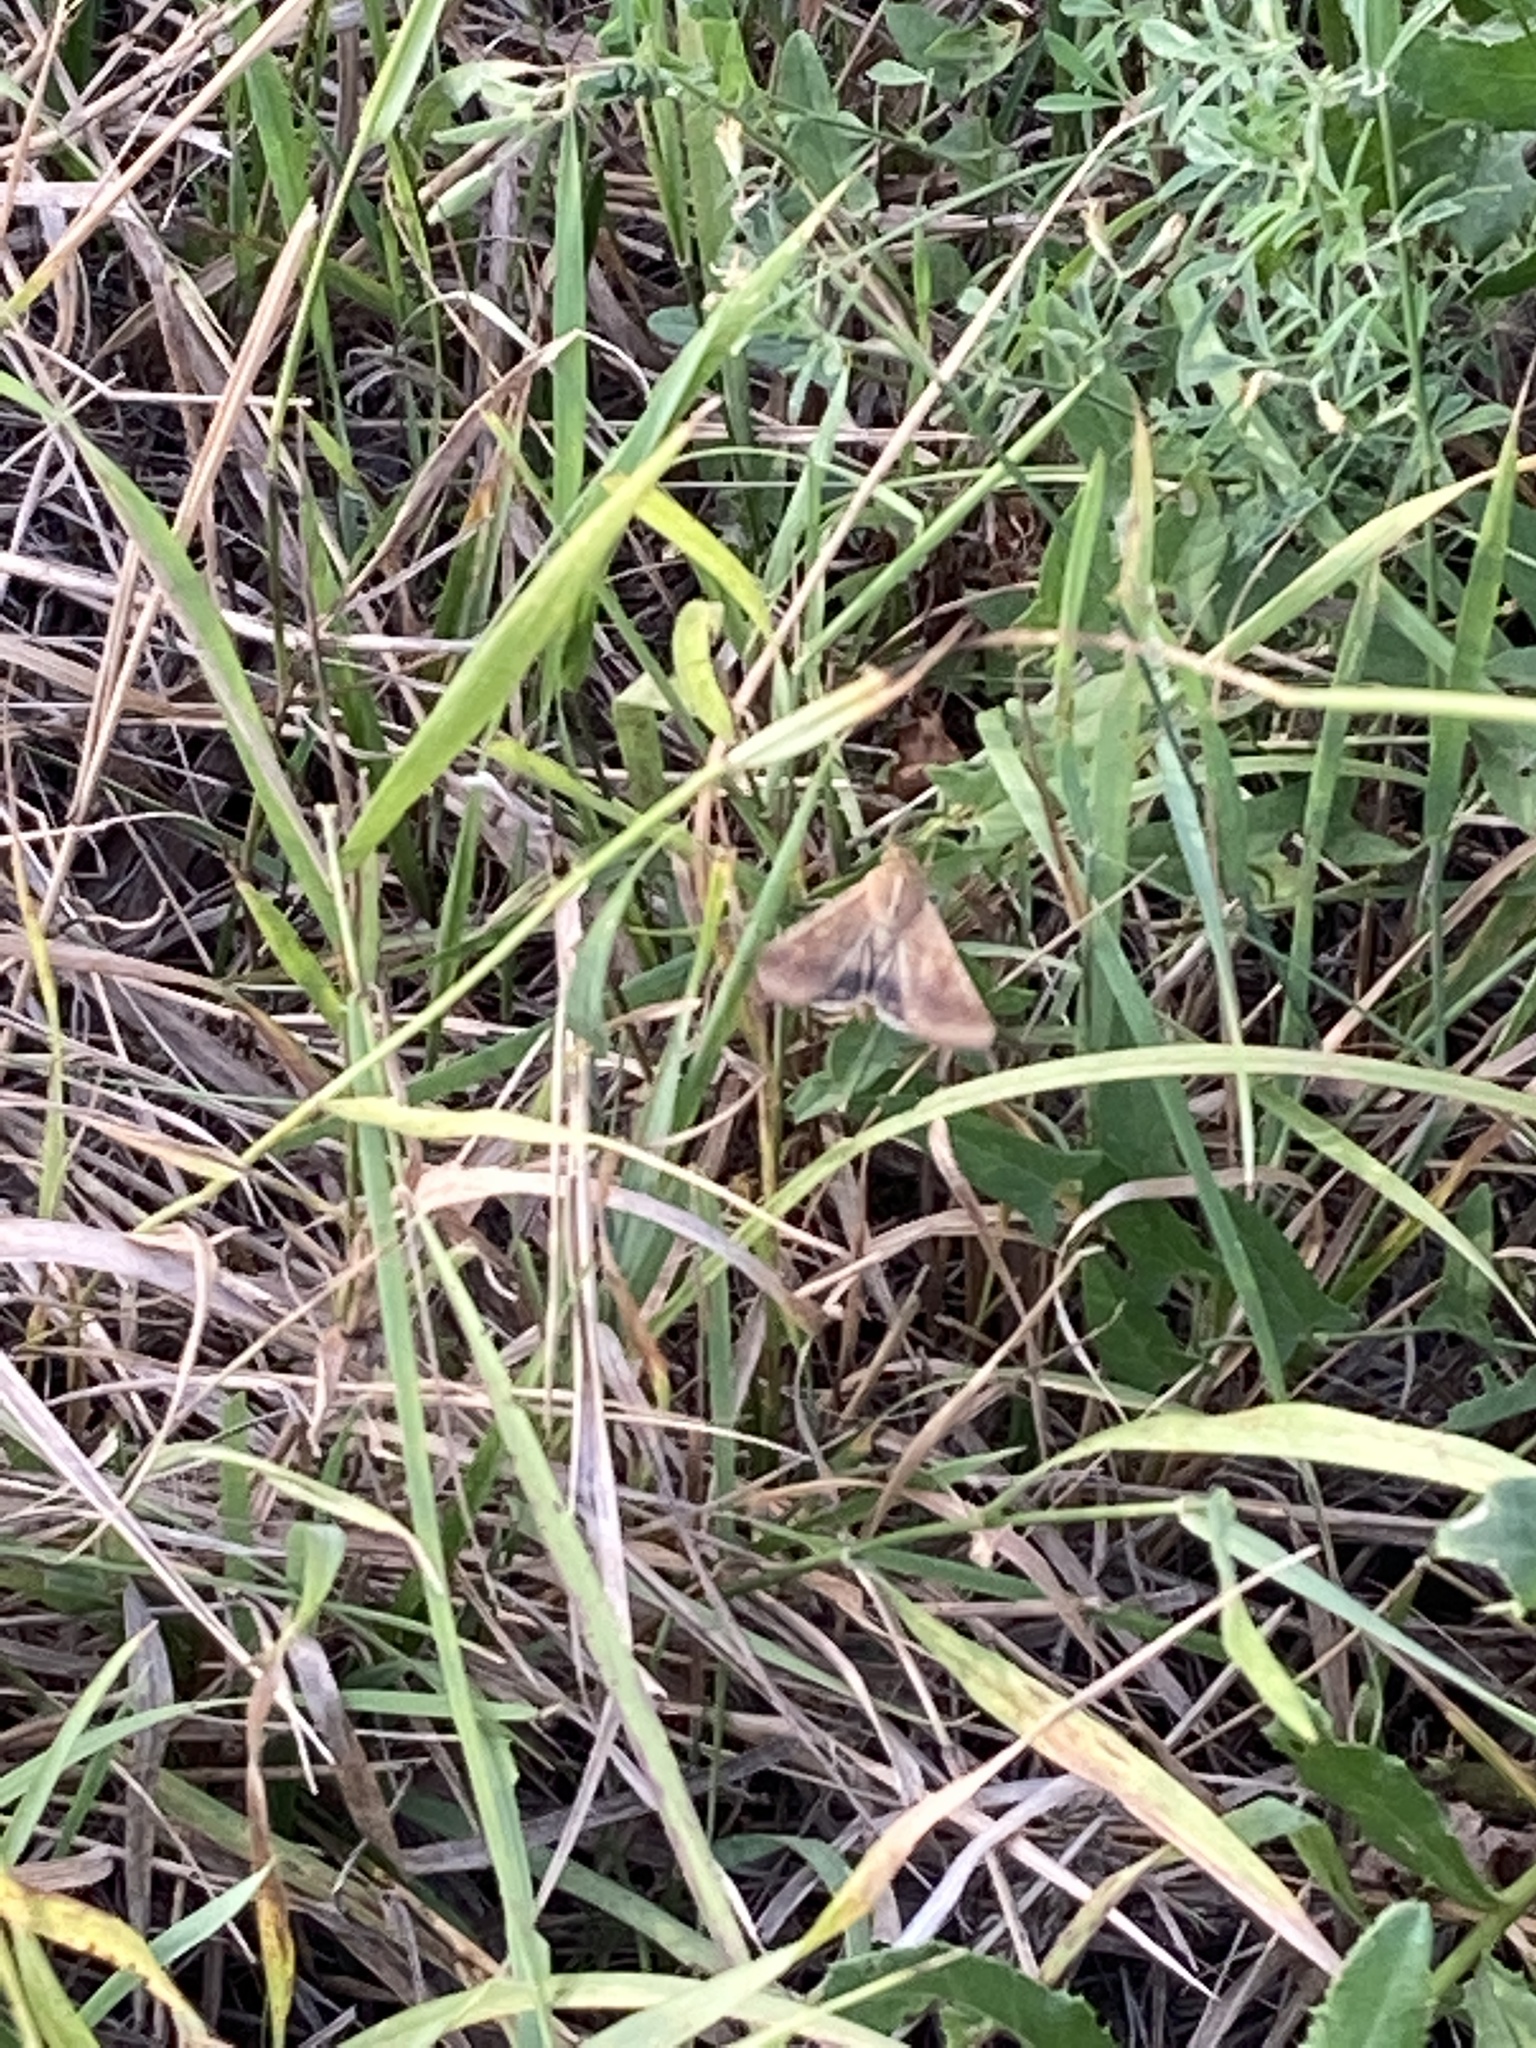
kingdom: Animalia
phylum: Arthropoda
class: Insecta
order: Lepidoptera
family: Noctuidae
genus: Helicoverpa
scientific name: Helicoverpa armigera
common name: Cotton bollworm
